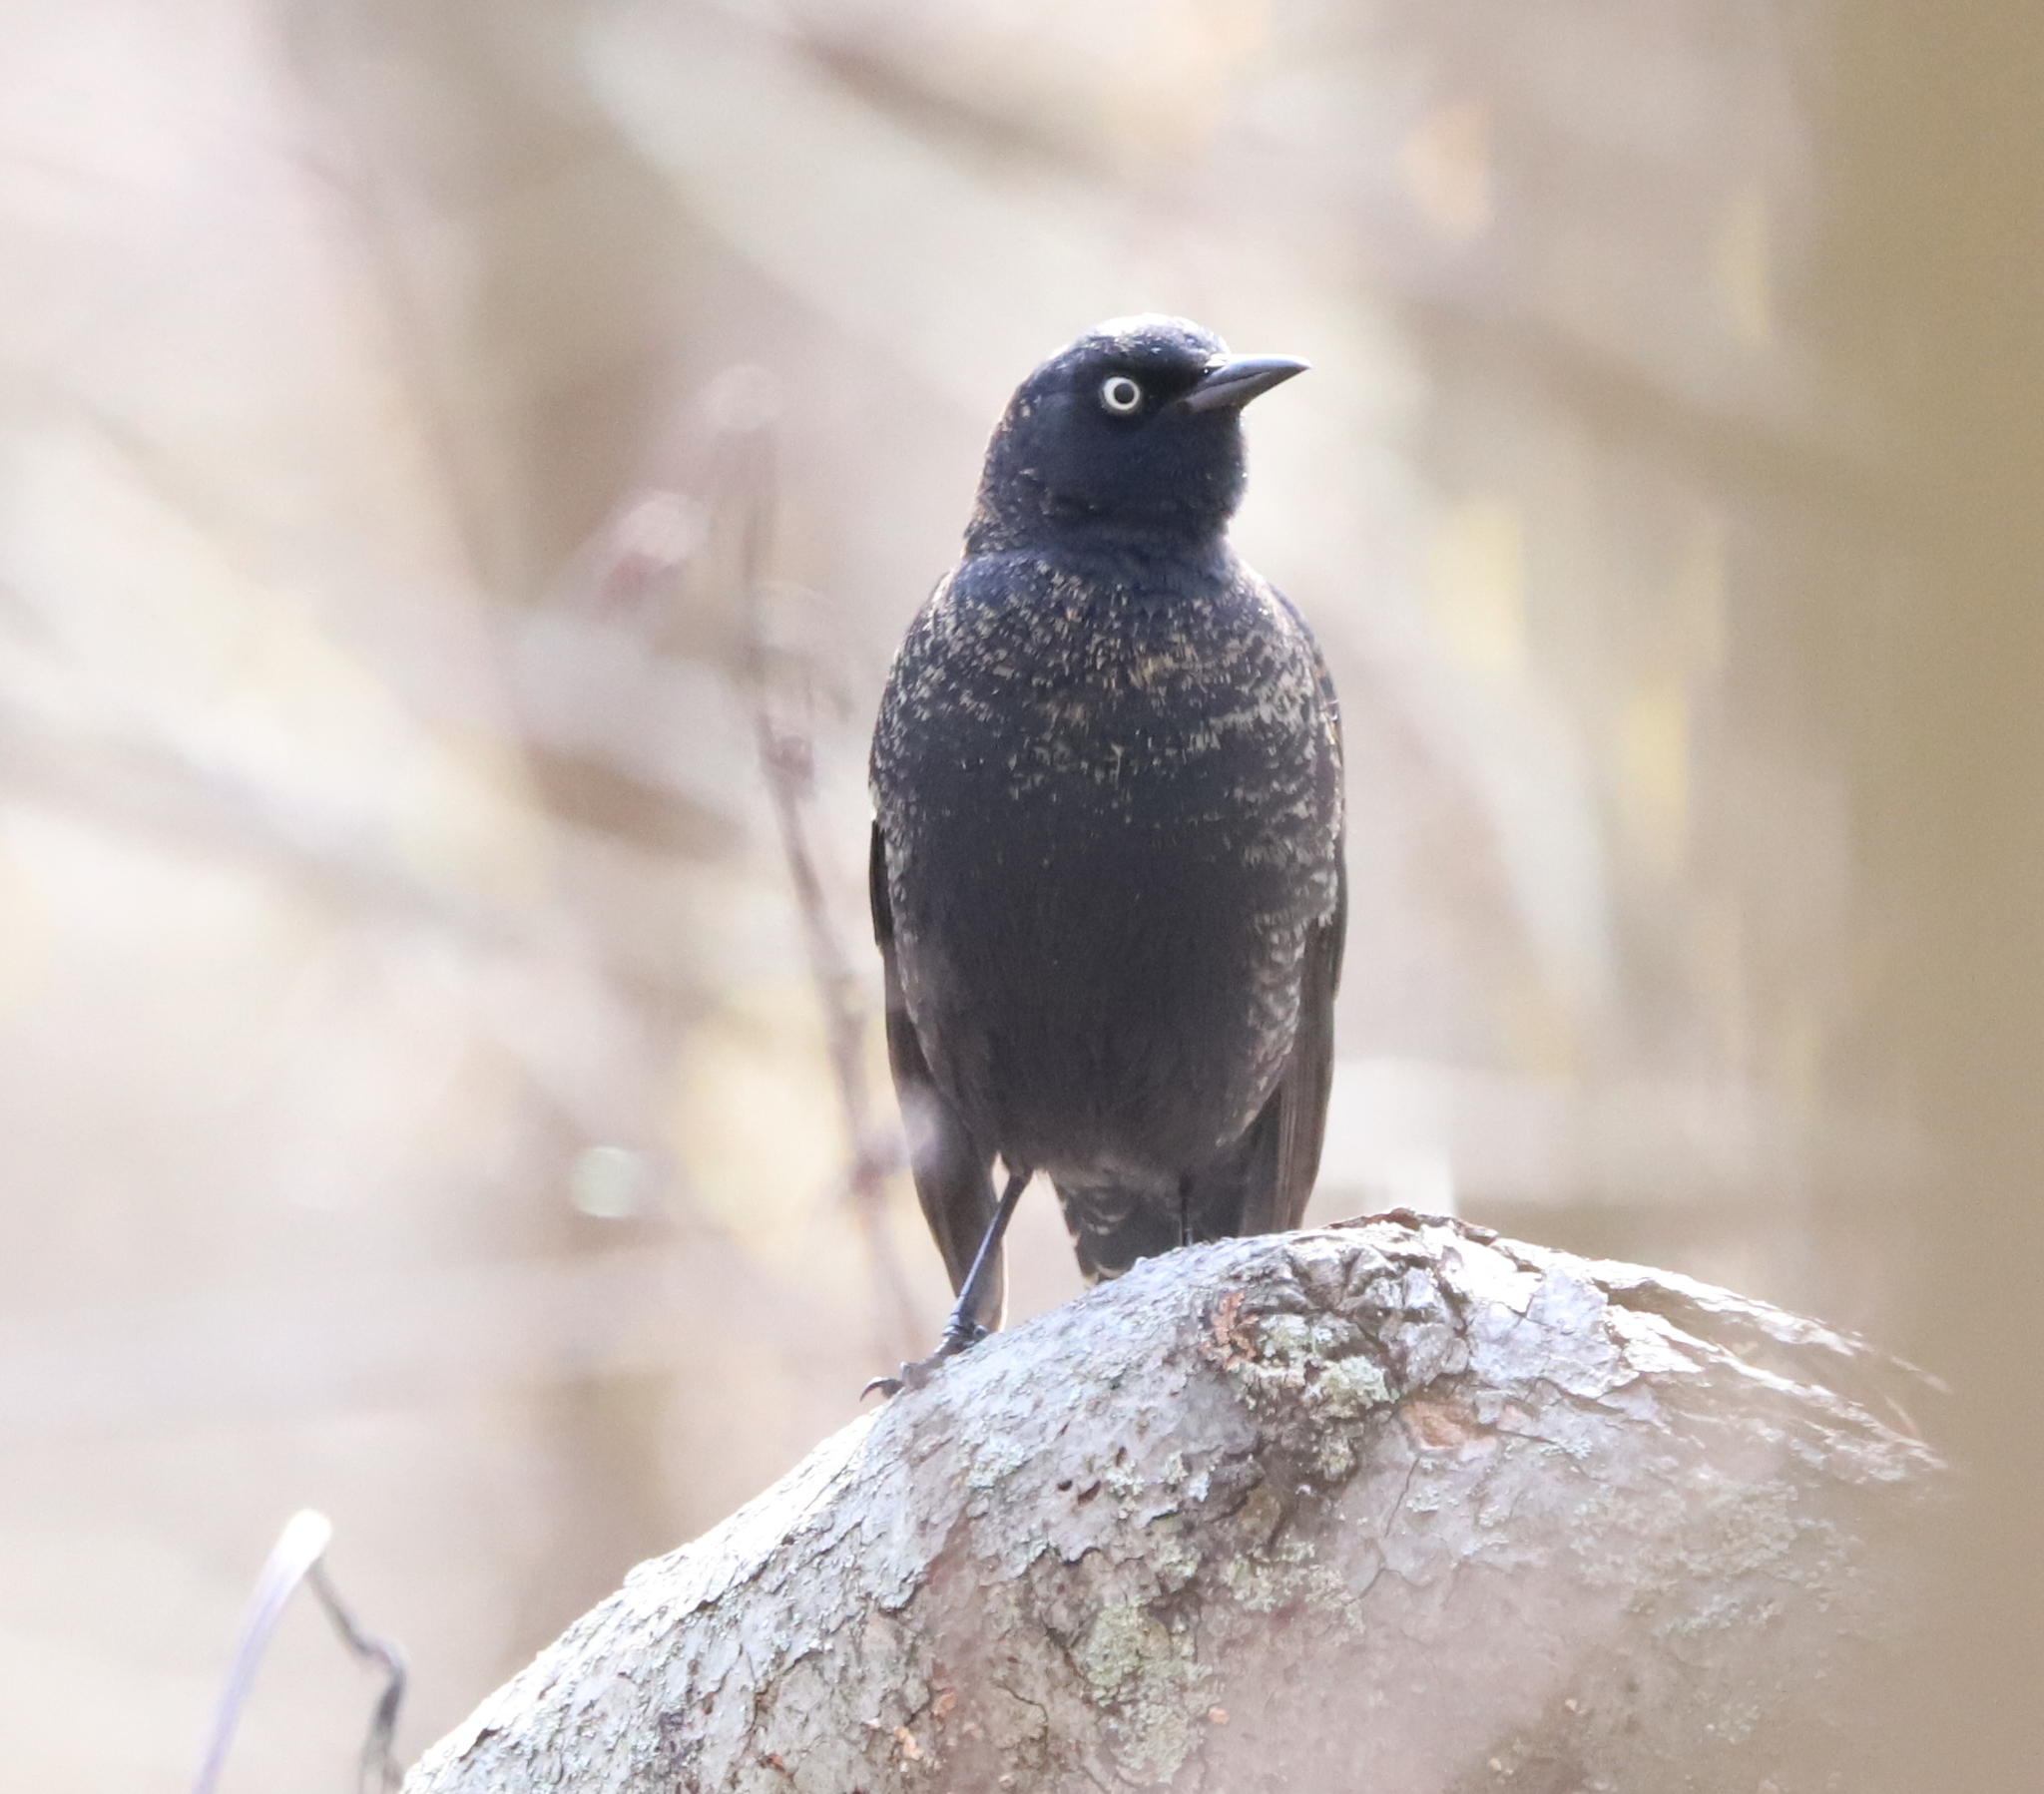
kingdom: Animalia
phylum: Chordata
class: Aves
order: Passeriformes
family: Icteridae
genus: Euphagus
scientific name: Euphagus carolinus
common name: Rusty blackbird
